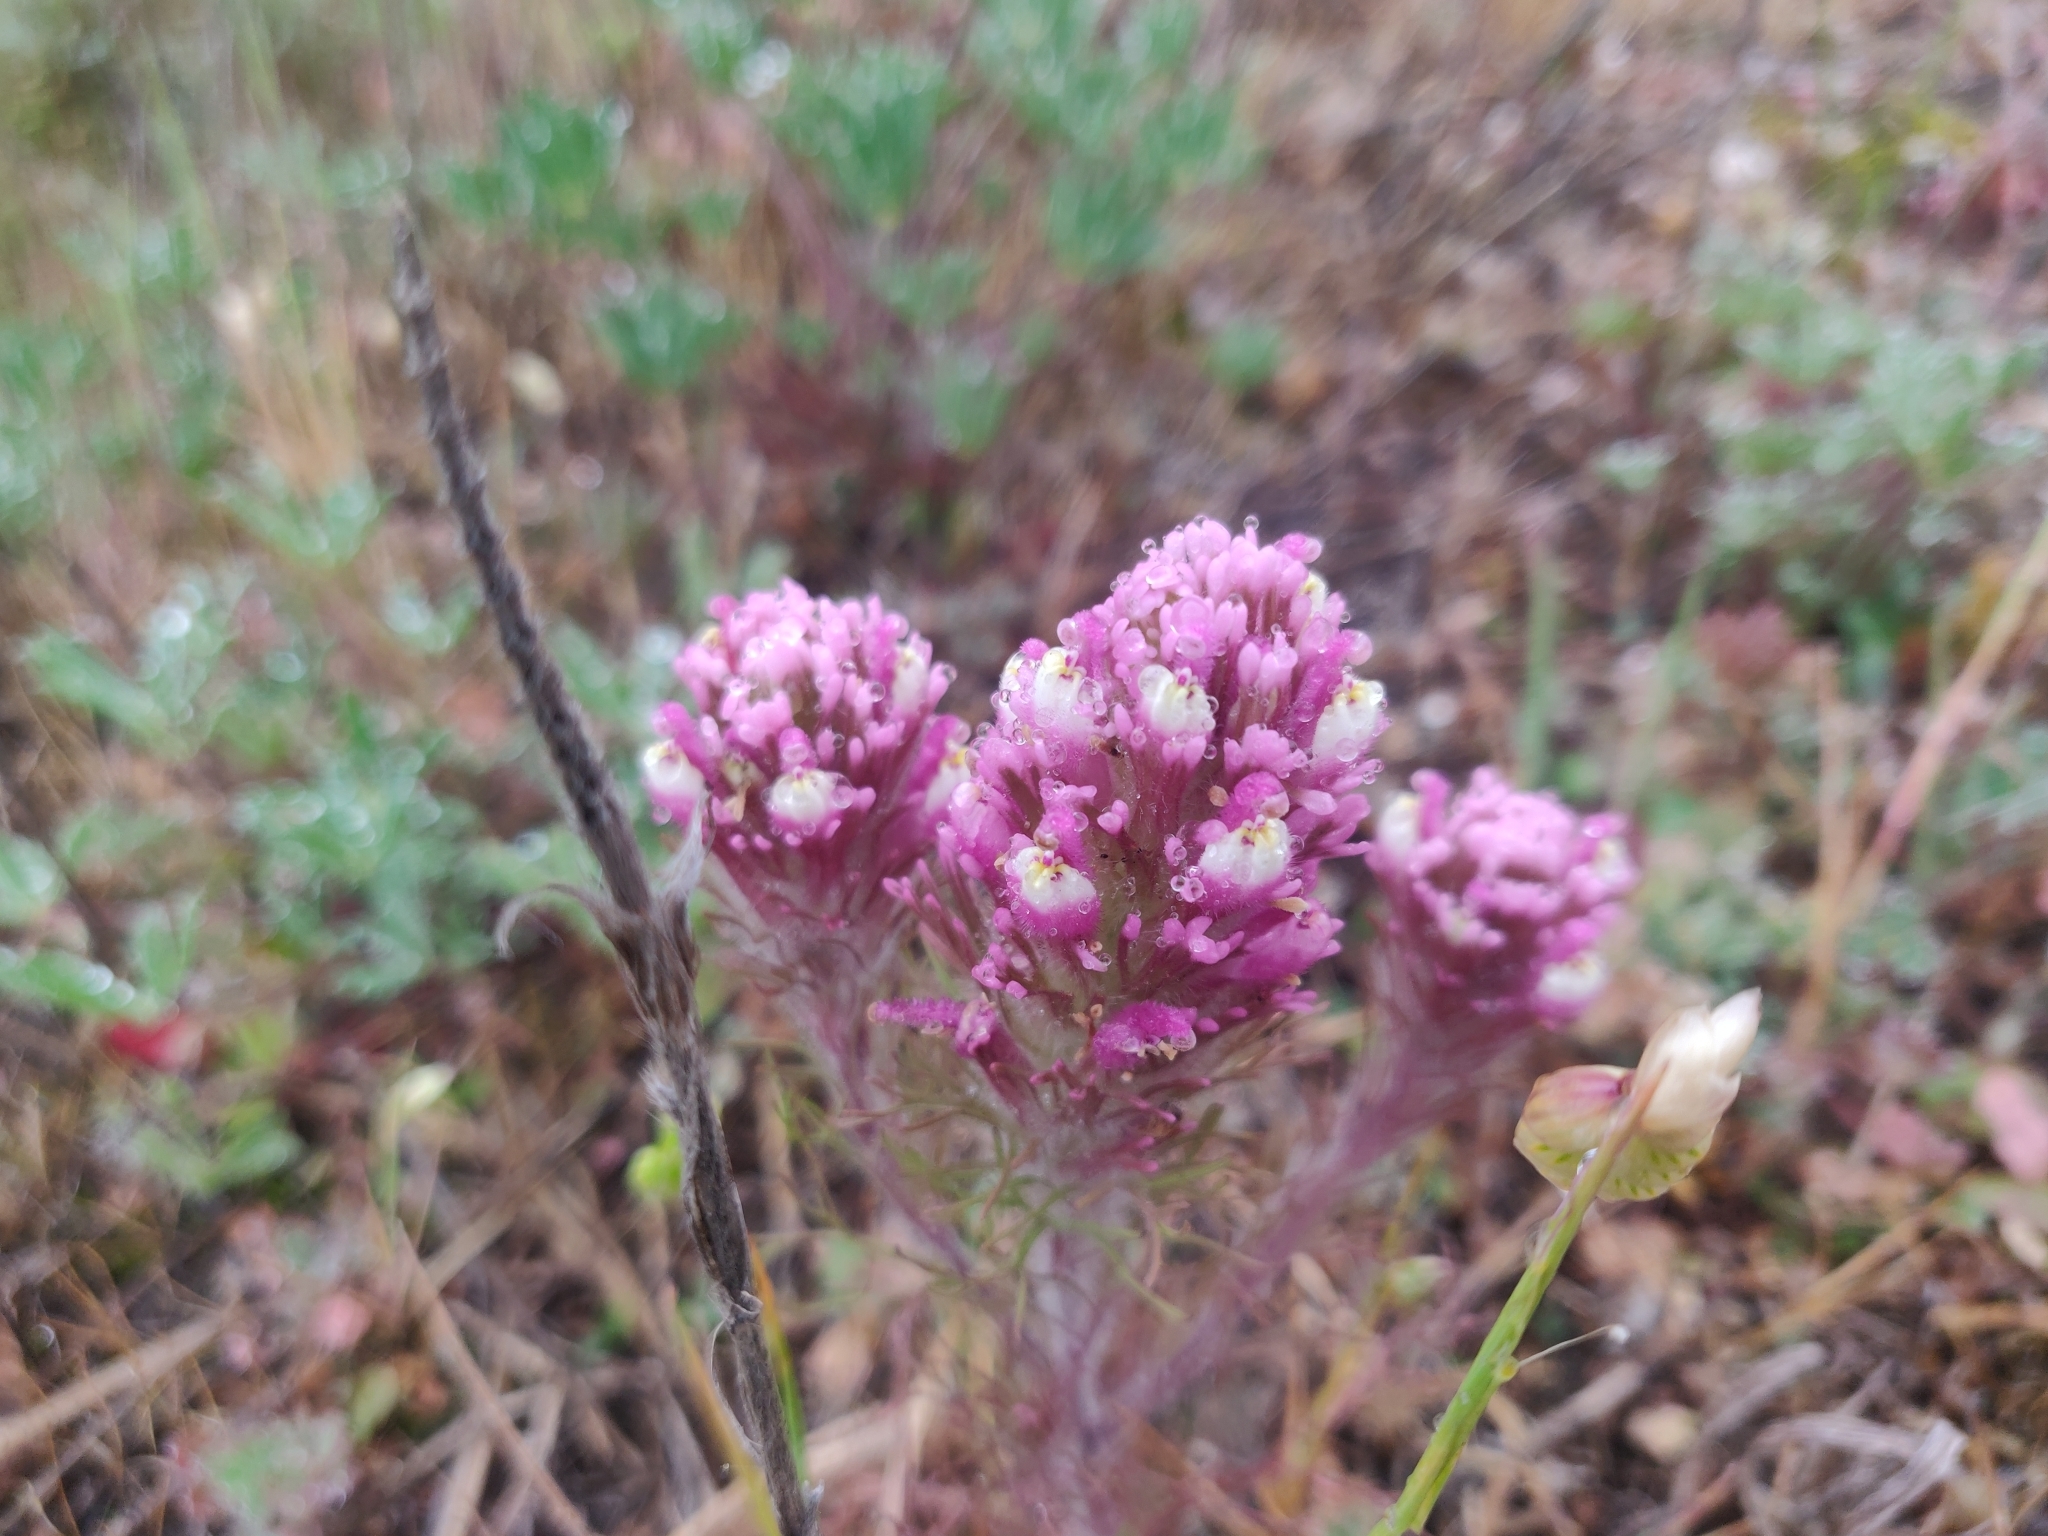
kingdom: Plantae
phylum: Tracheophyta
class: Magnoliopsida
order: Lamiales
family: Orobanchaceae
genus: Castilleja
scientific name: Castilleja exserta
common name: Purple owl-clover
